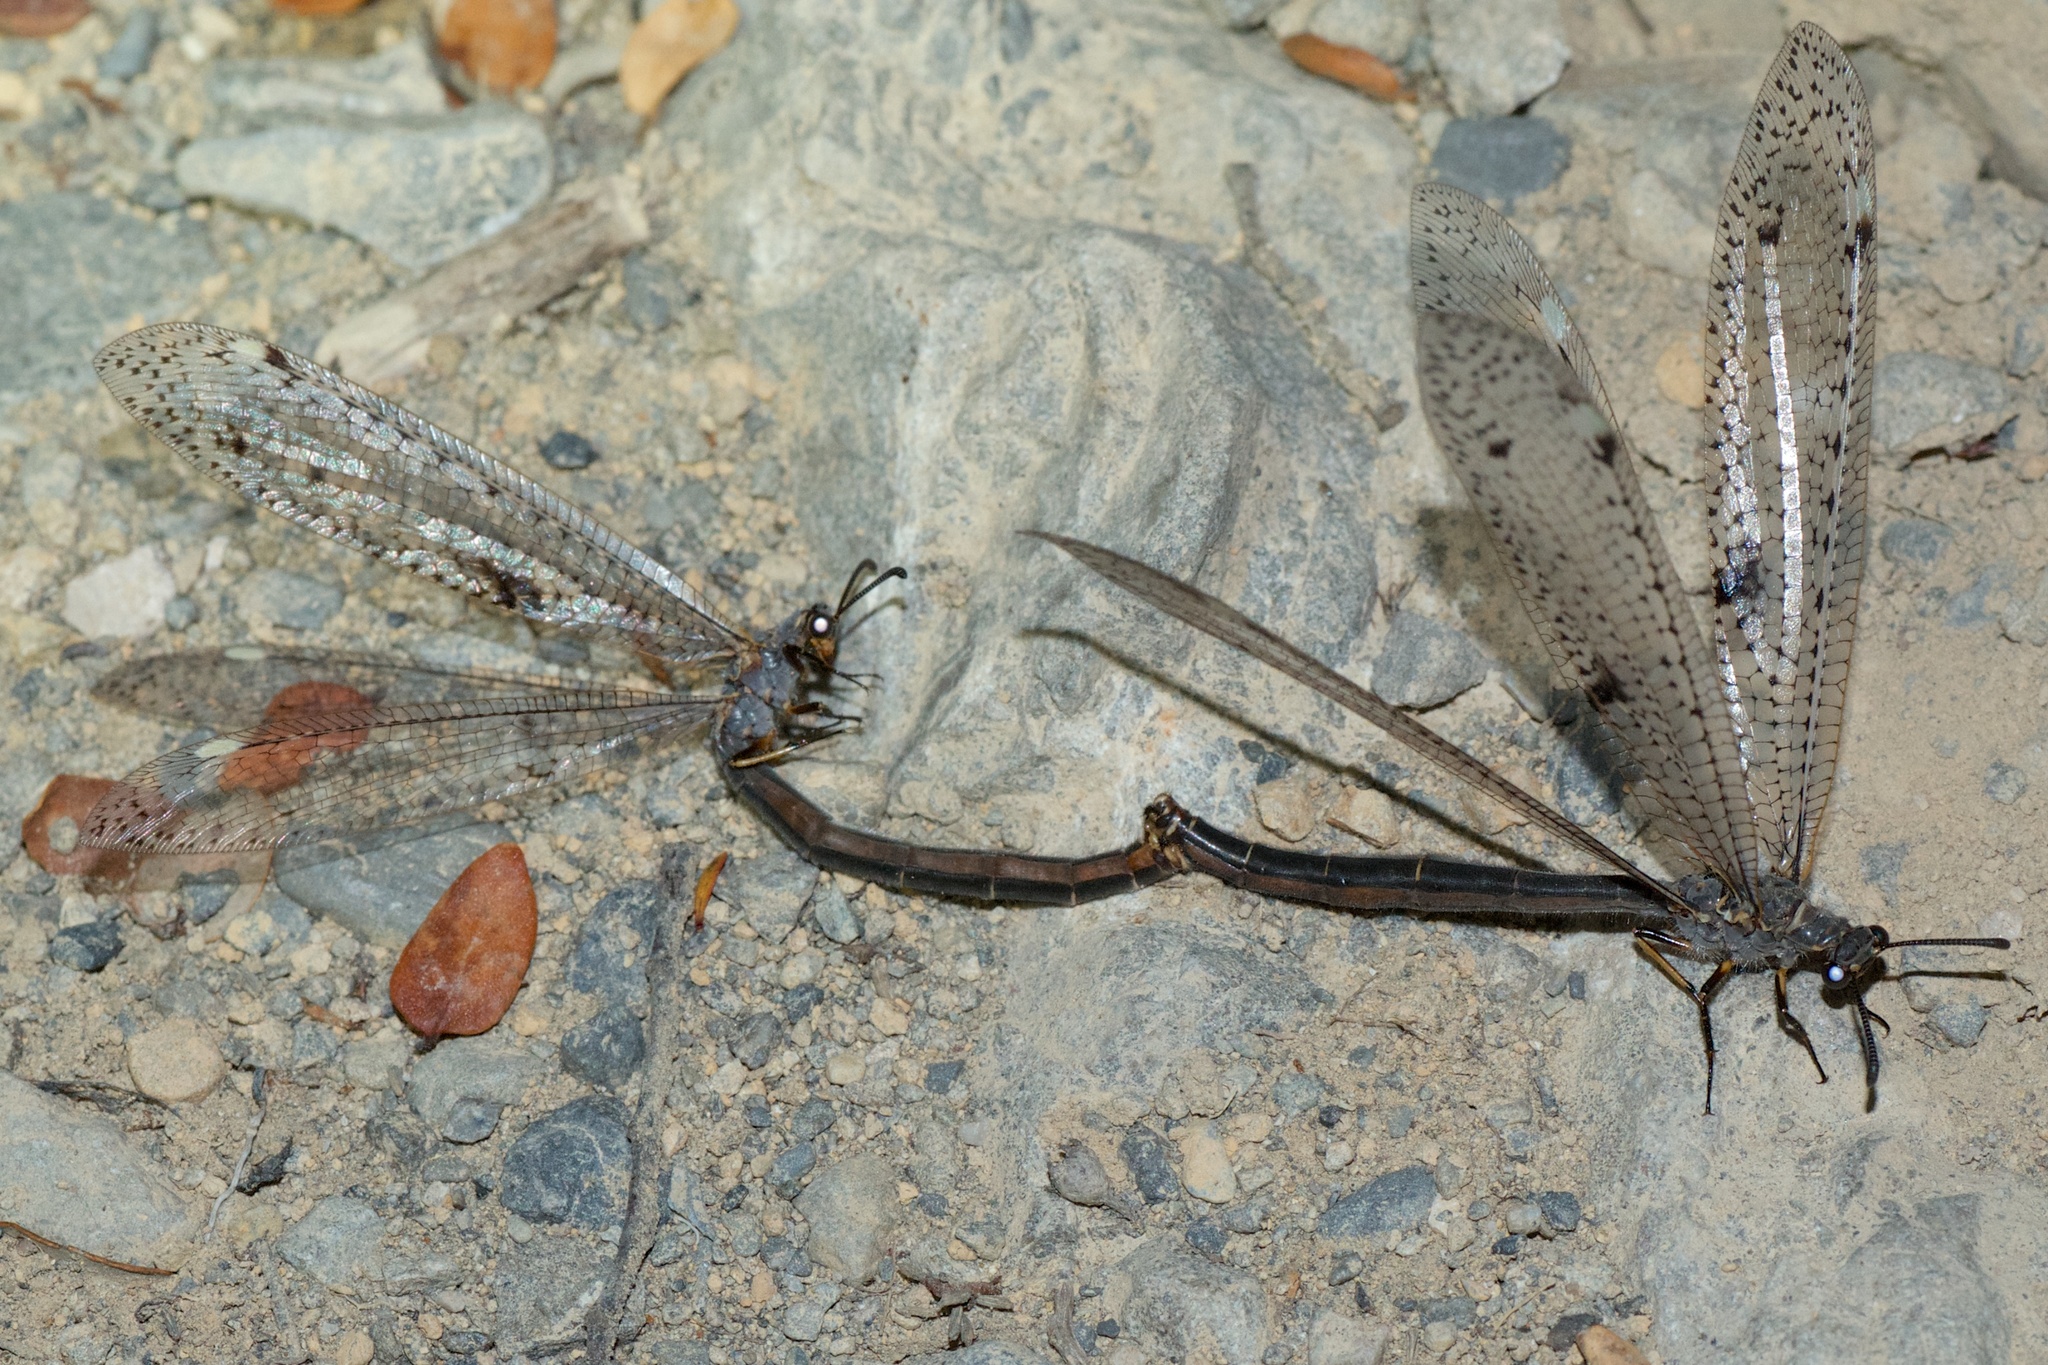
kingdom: Animalia
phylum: Arthropoda
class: Insecta
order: Neuroptera
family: Myrmeleontidae
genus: Weeleus
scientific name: Weeleus acutus
